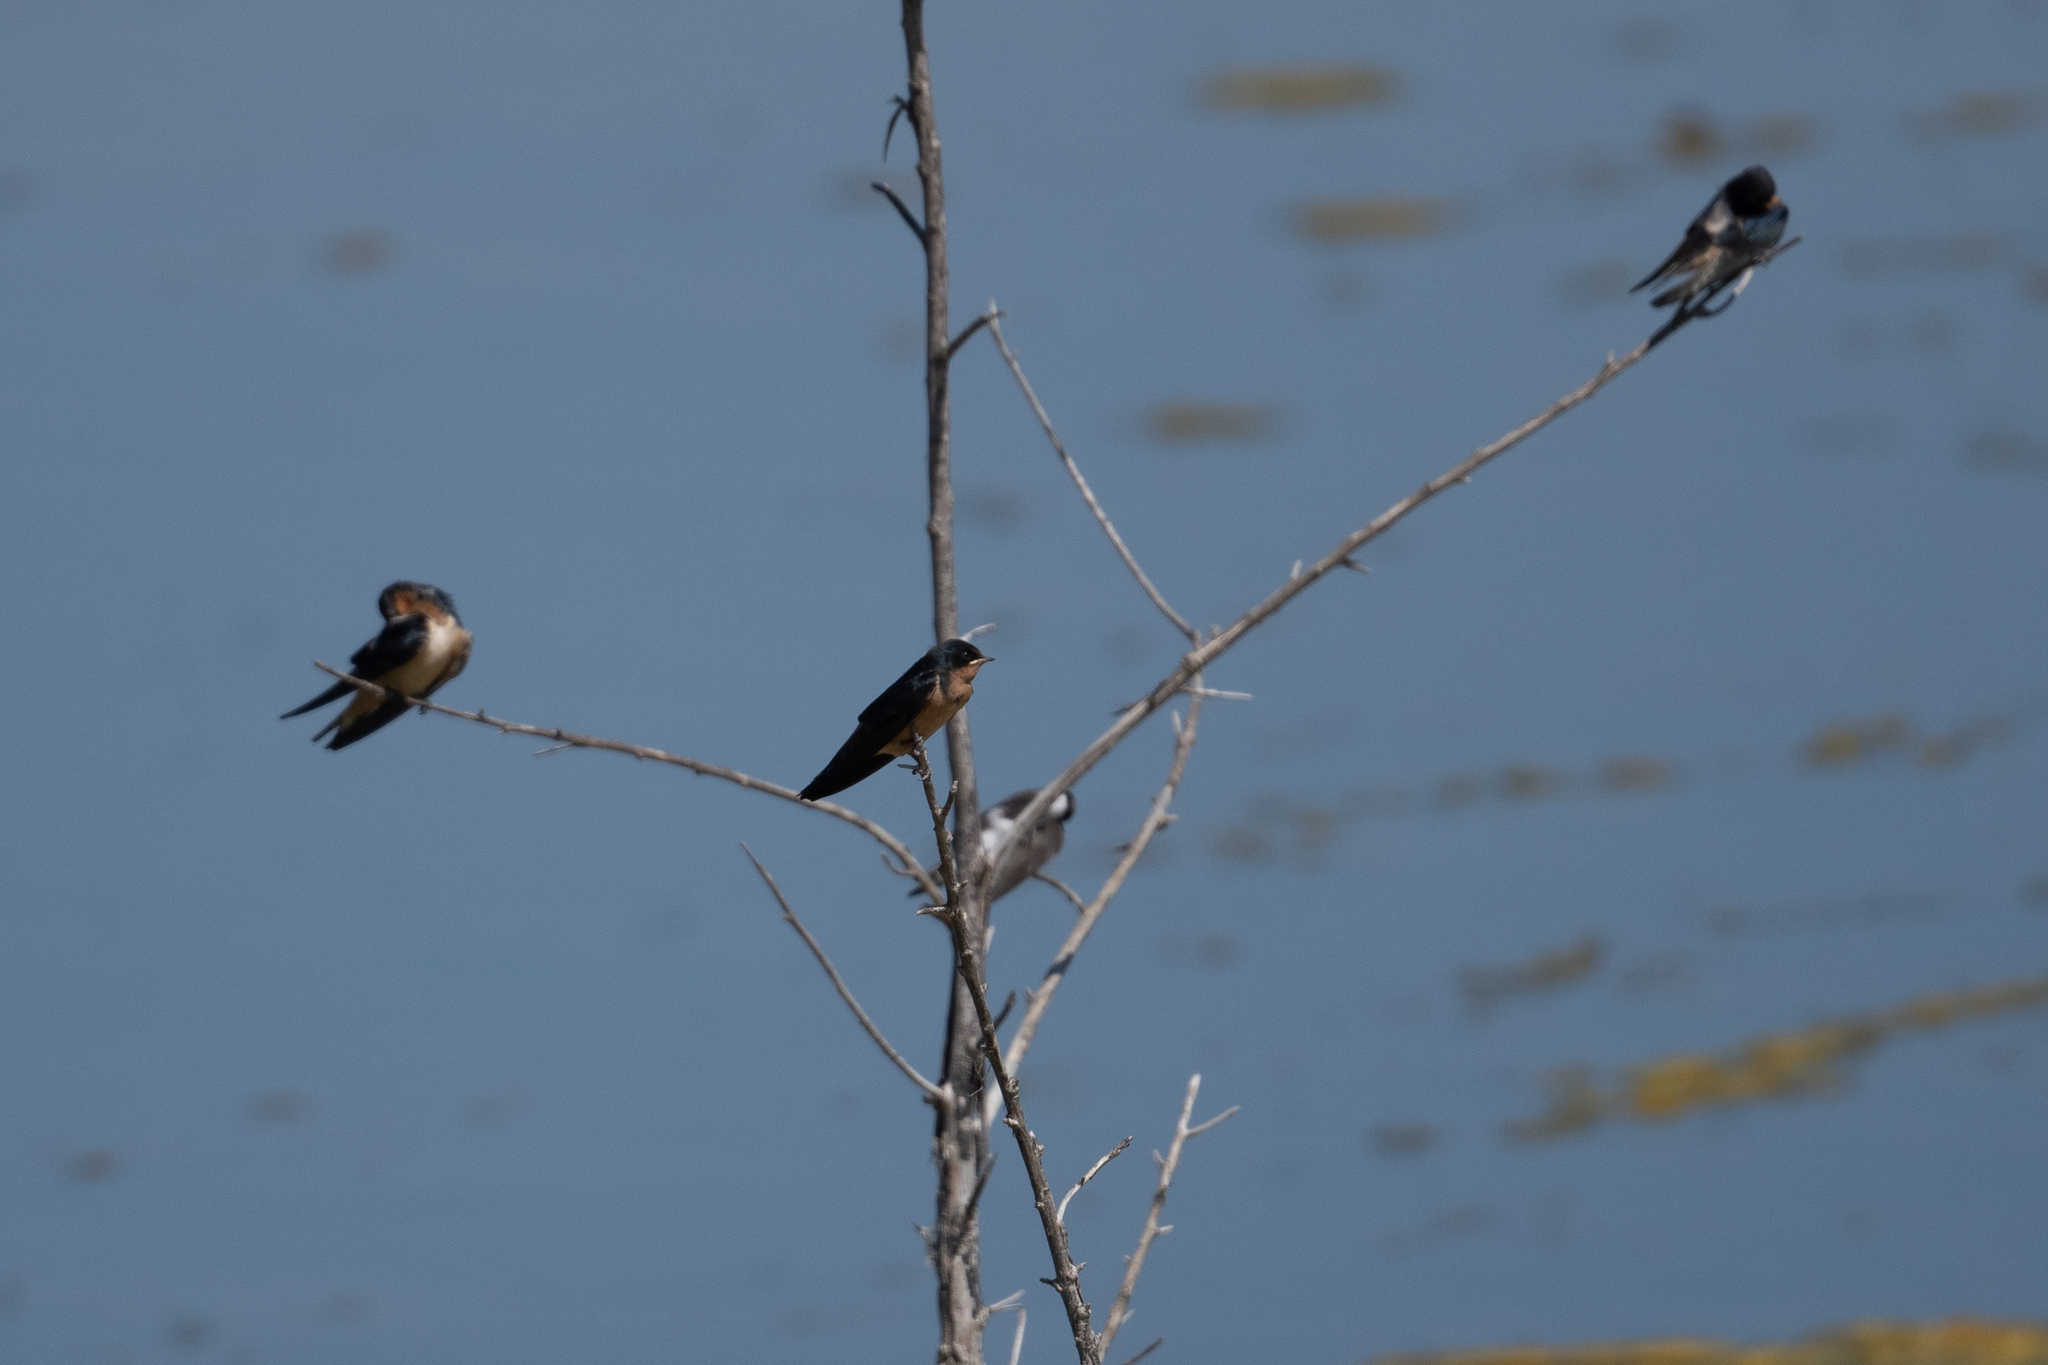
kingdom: Animalia
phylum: Chordata
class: Aves
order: Passeriformes
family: Hirundinidae
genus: Hirundo
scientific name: Hirundo rustica
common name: Barn swallow
